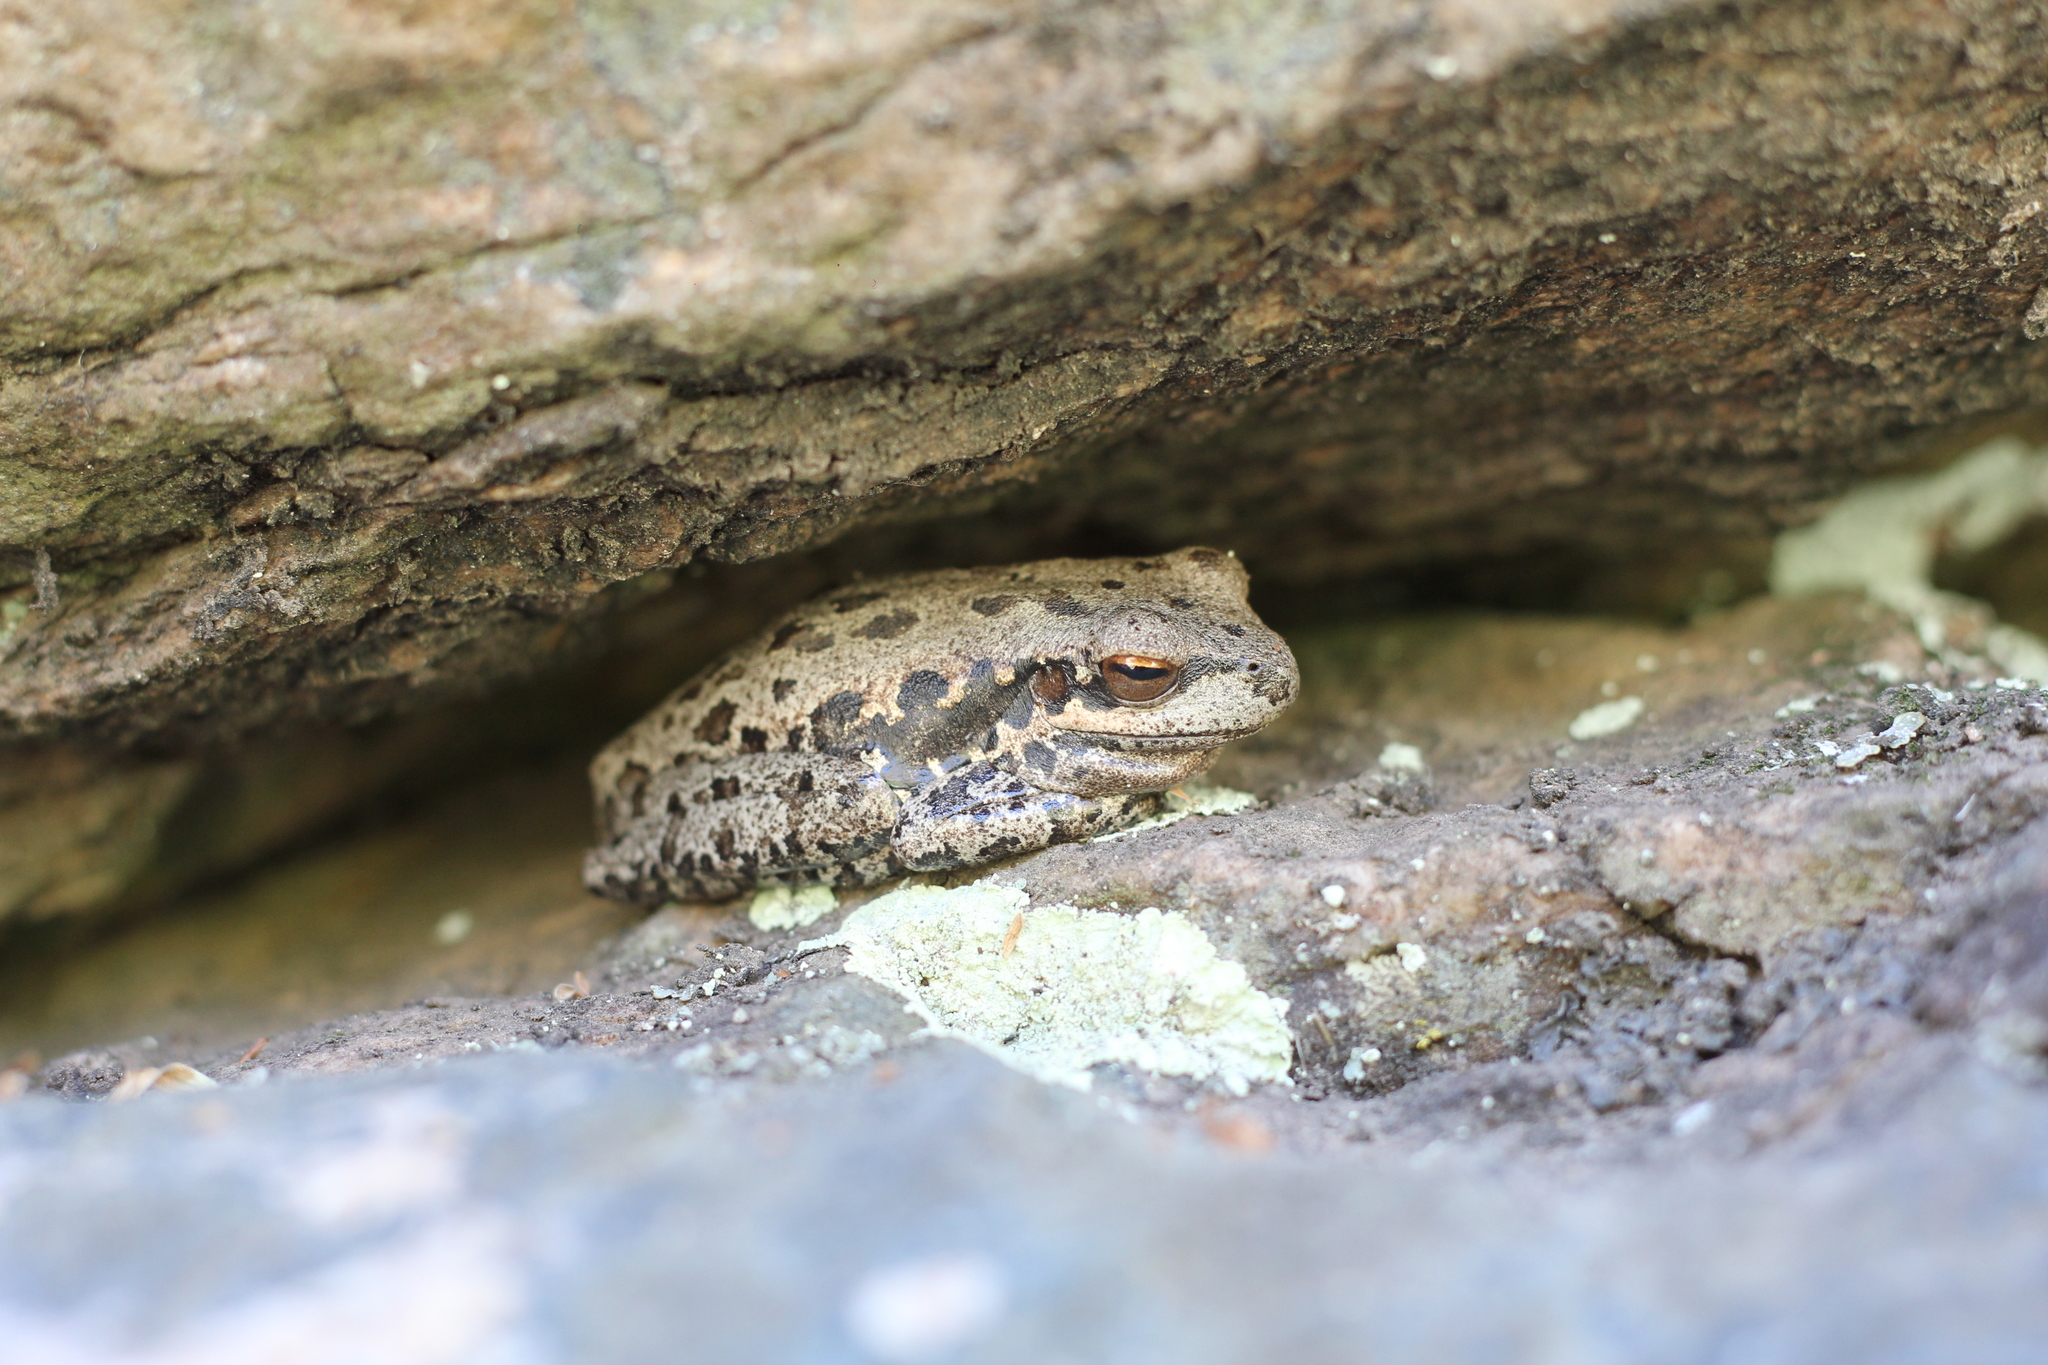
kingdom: Animalia
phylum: Chordata
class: Amphibia
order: Anura
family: Hylidae
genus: Boana
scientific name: Boana pulchella
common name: Montevideo treefrog
